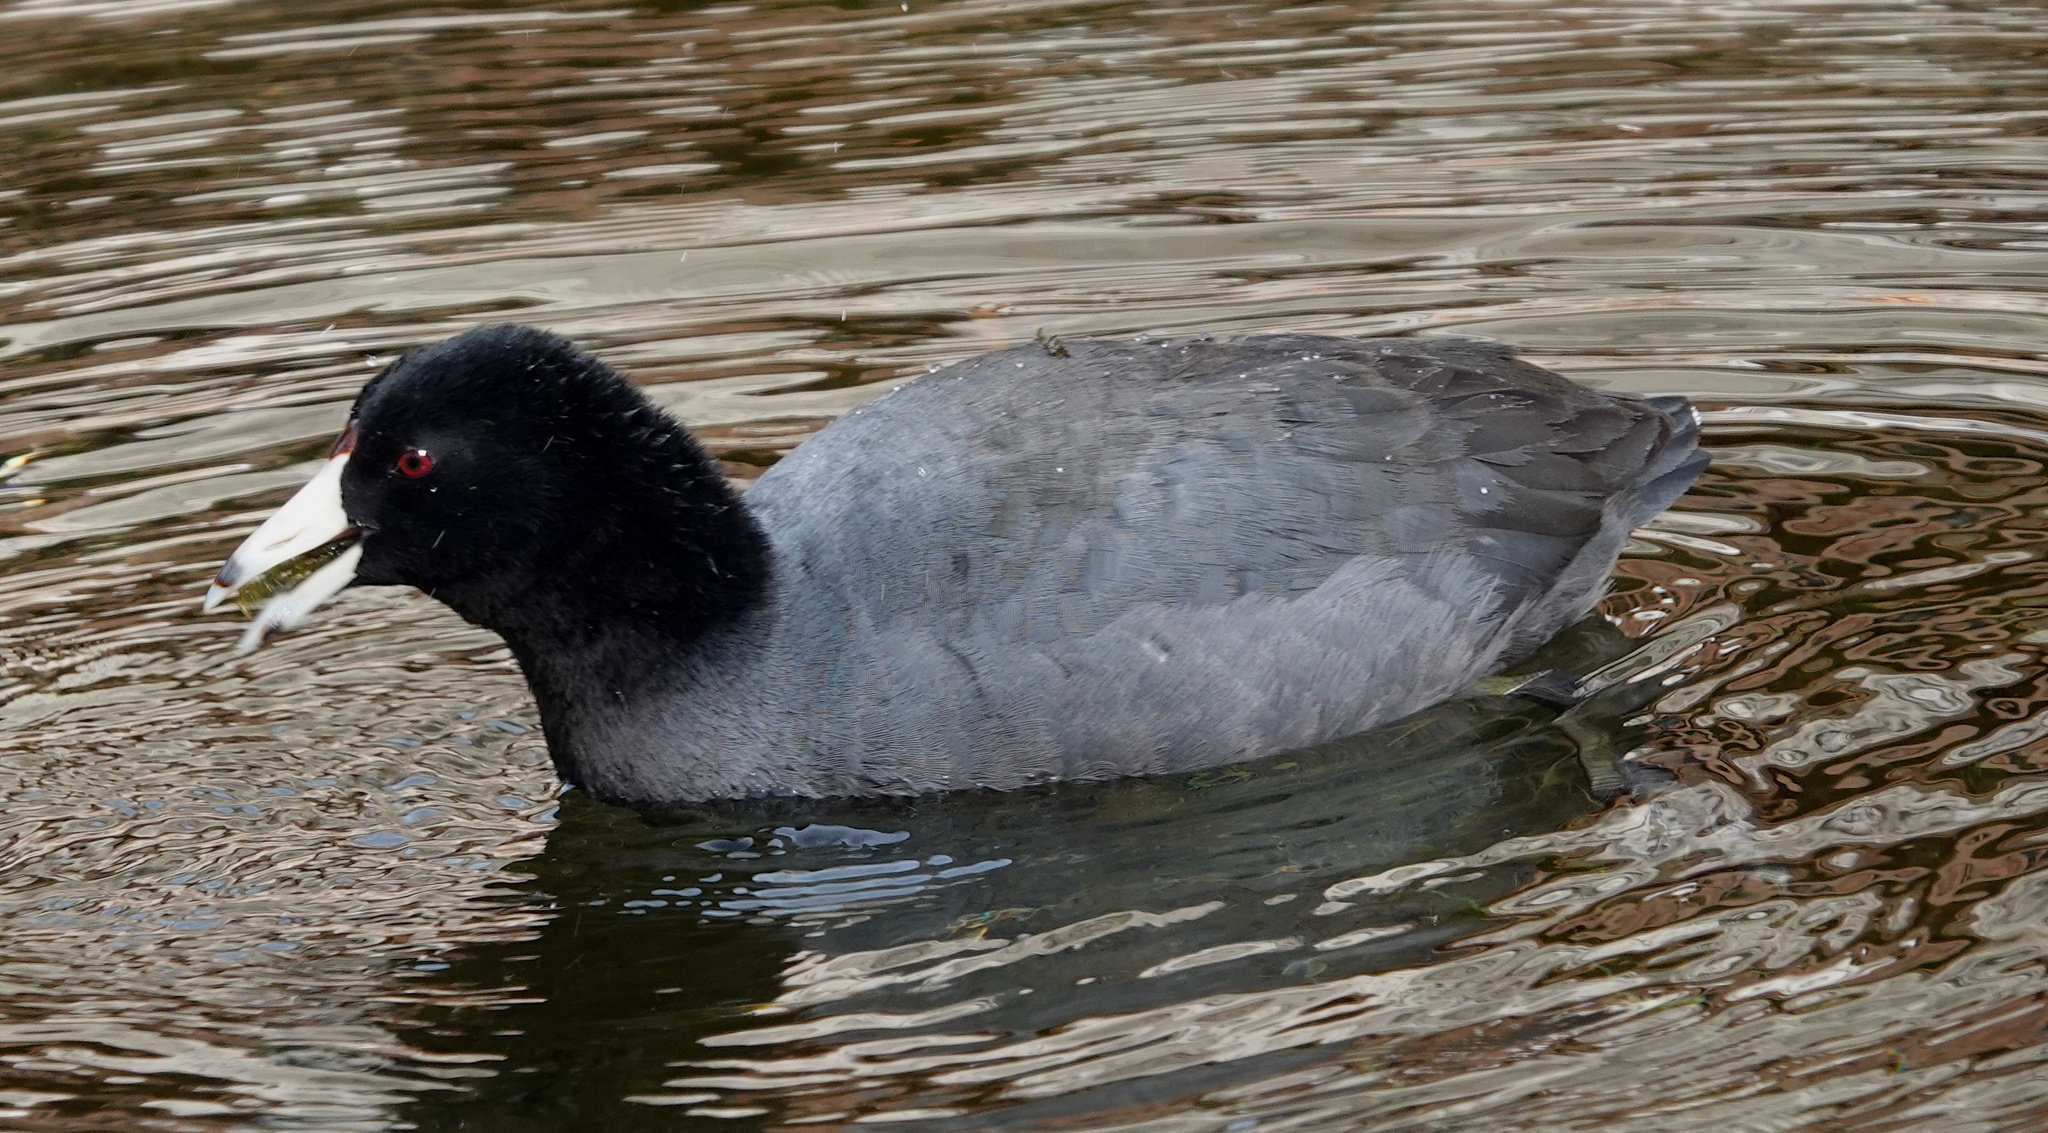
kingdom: Animalia
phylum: Chordata
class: Aves
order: Gruiformes
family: Rallidae
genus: Fulica
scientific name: Fulica americana
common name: American coot
